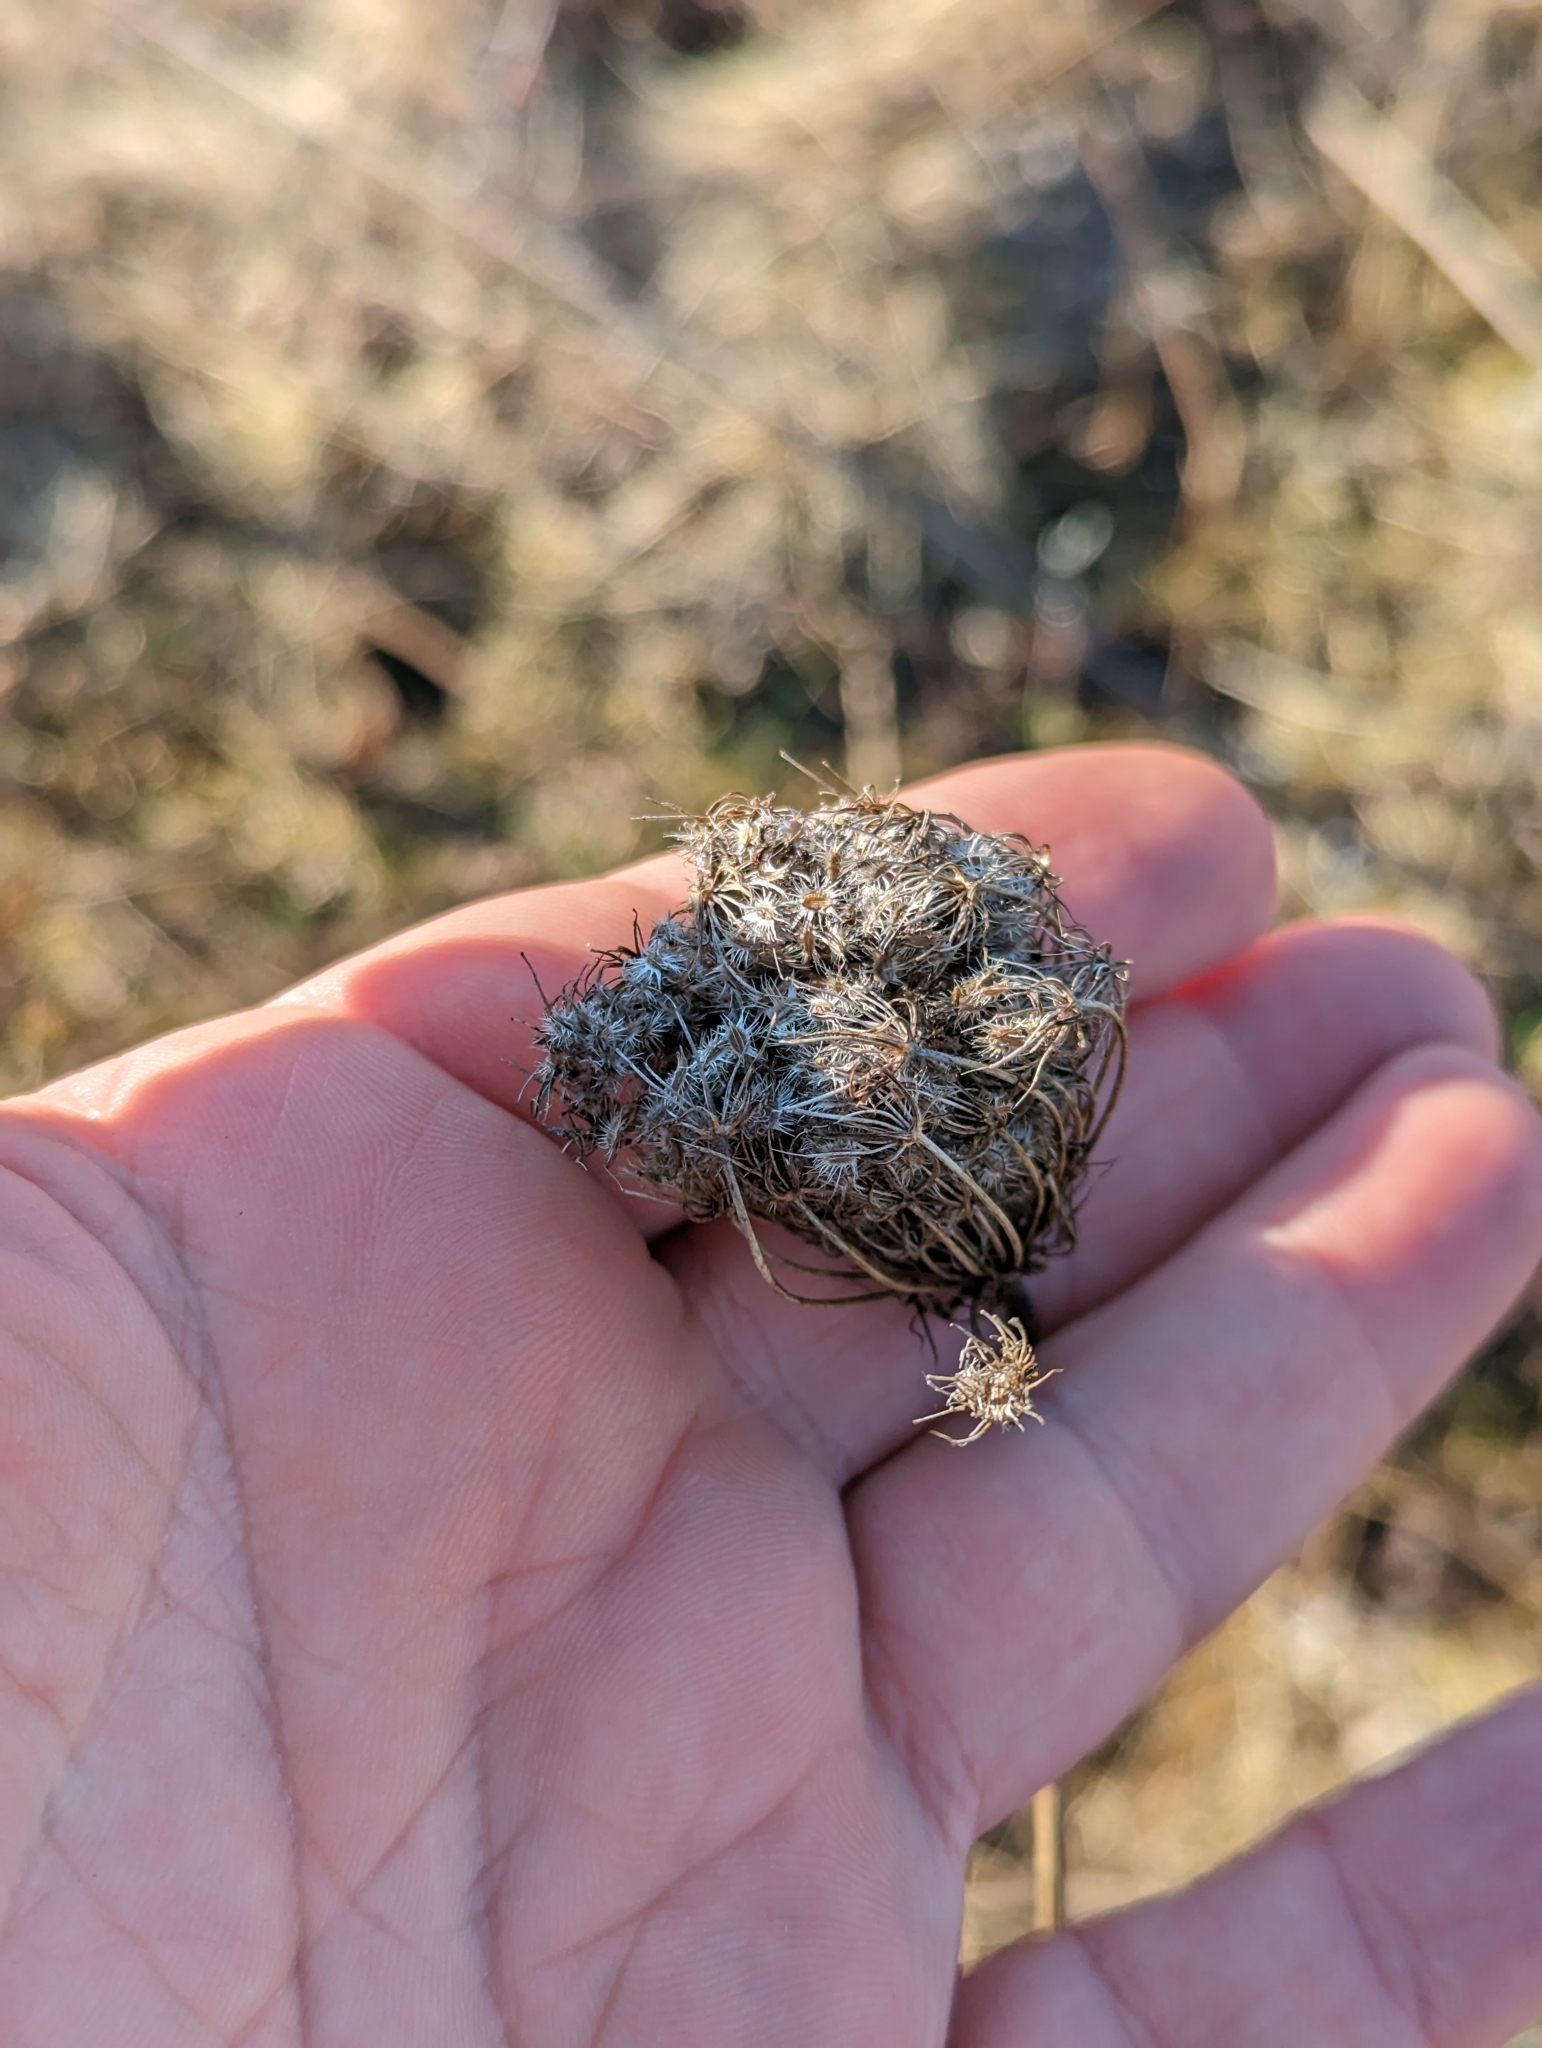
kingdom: Plantae
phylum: Tracheophyta
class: Magnoliopsida
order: Apiales
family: Apiaceae
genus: Daucus
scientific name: Daucus carota
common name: Wild carrot
